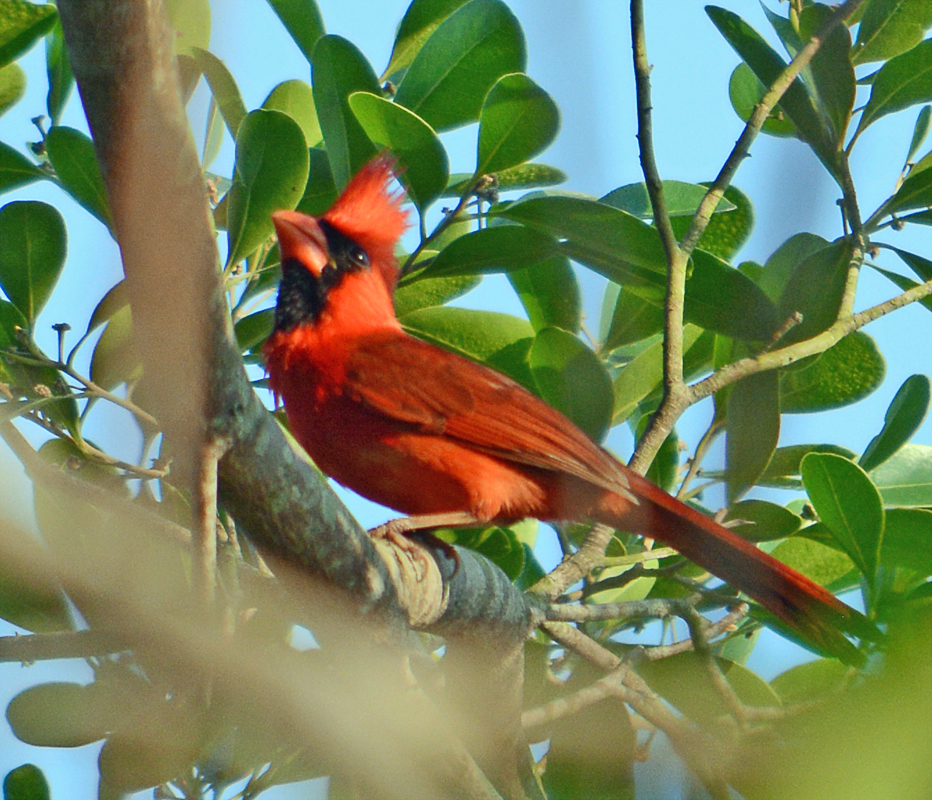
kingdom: Animalia
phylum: Chordata
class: Aves
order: Passeriformes
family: Cardinalidae
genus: Cardinalis
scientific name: Cardinalis cardinalis
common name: Northern cardinal
